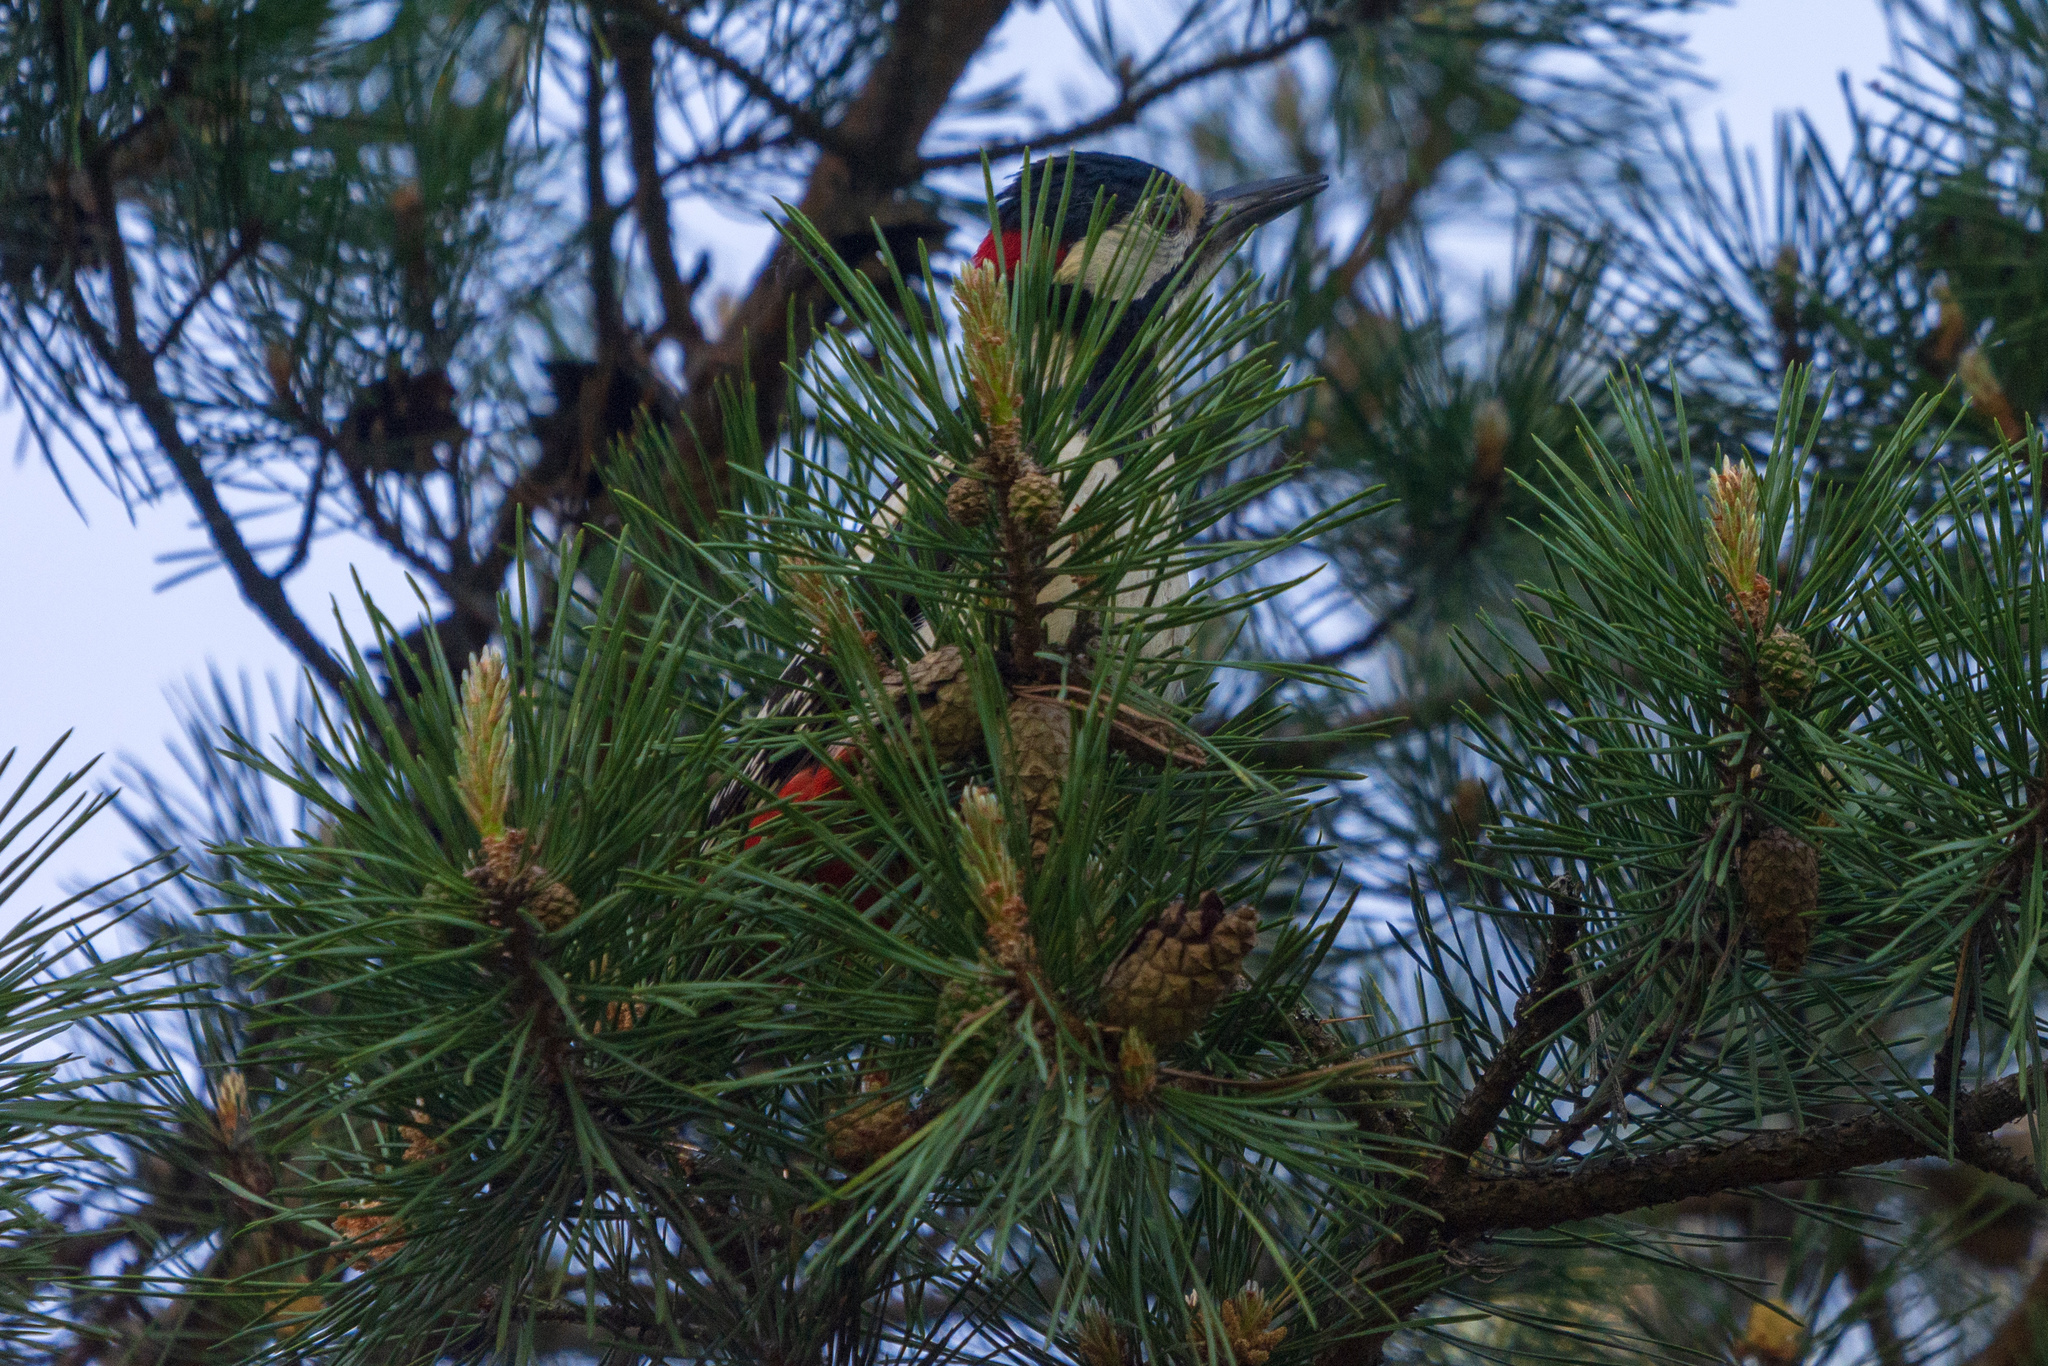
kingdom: Animalia
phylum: Chordata
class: Aves
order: Piciformes
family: Picidae
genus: Dendrocopos
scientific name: Dendrocopos major
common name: Great spotted woodpecker
